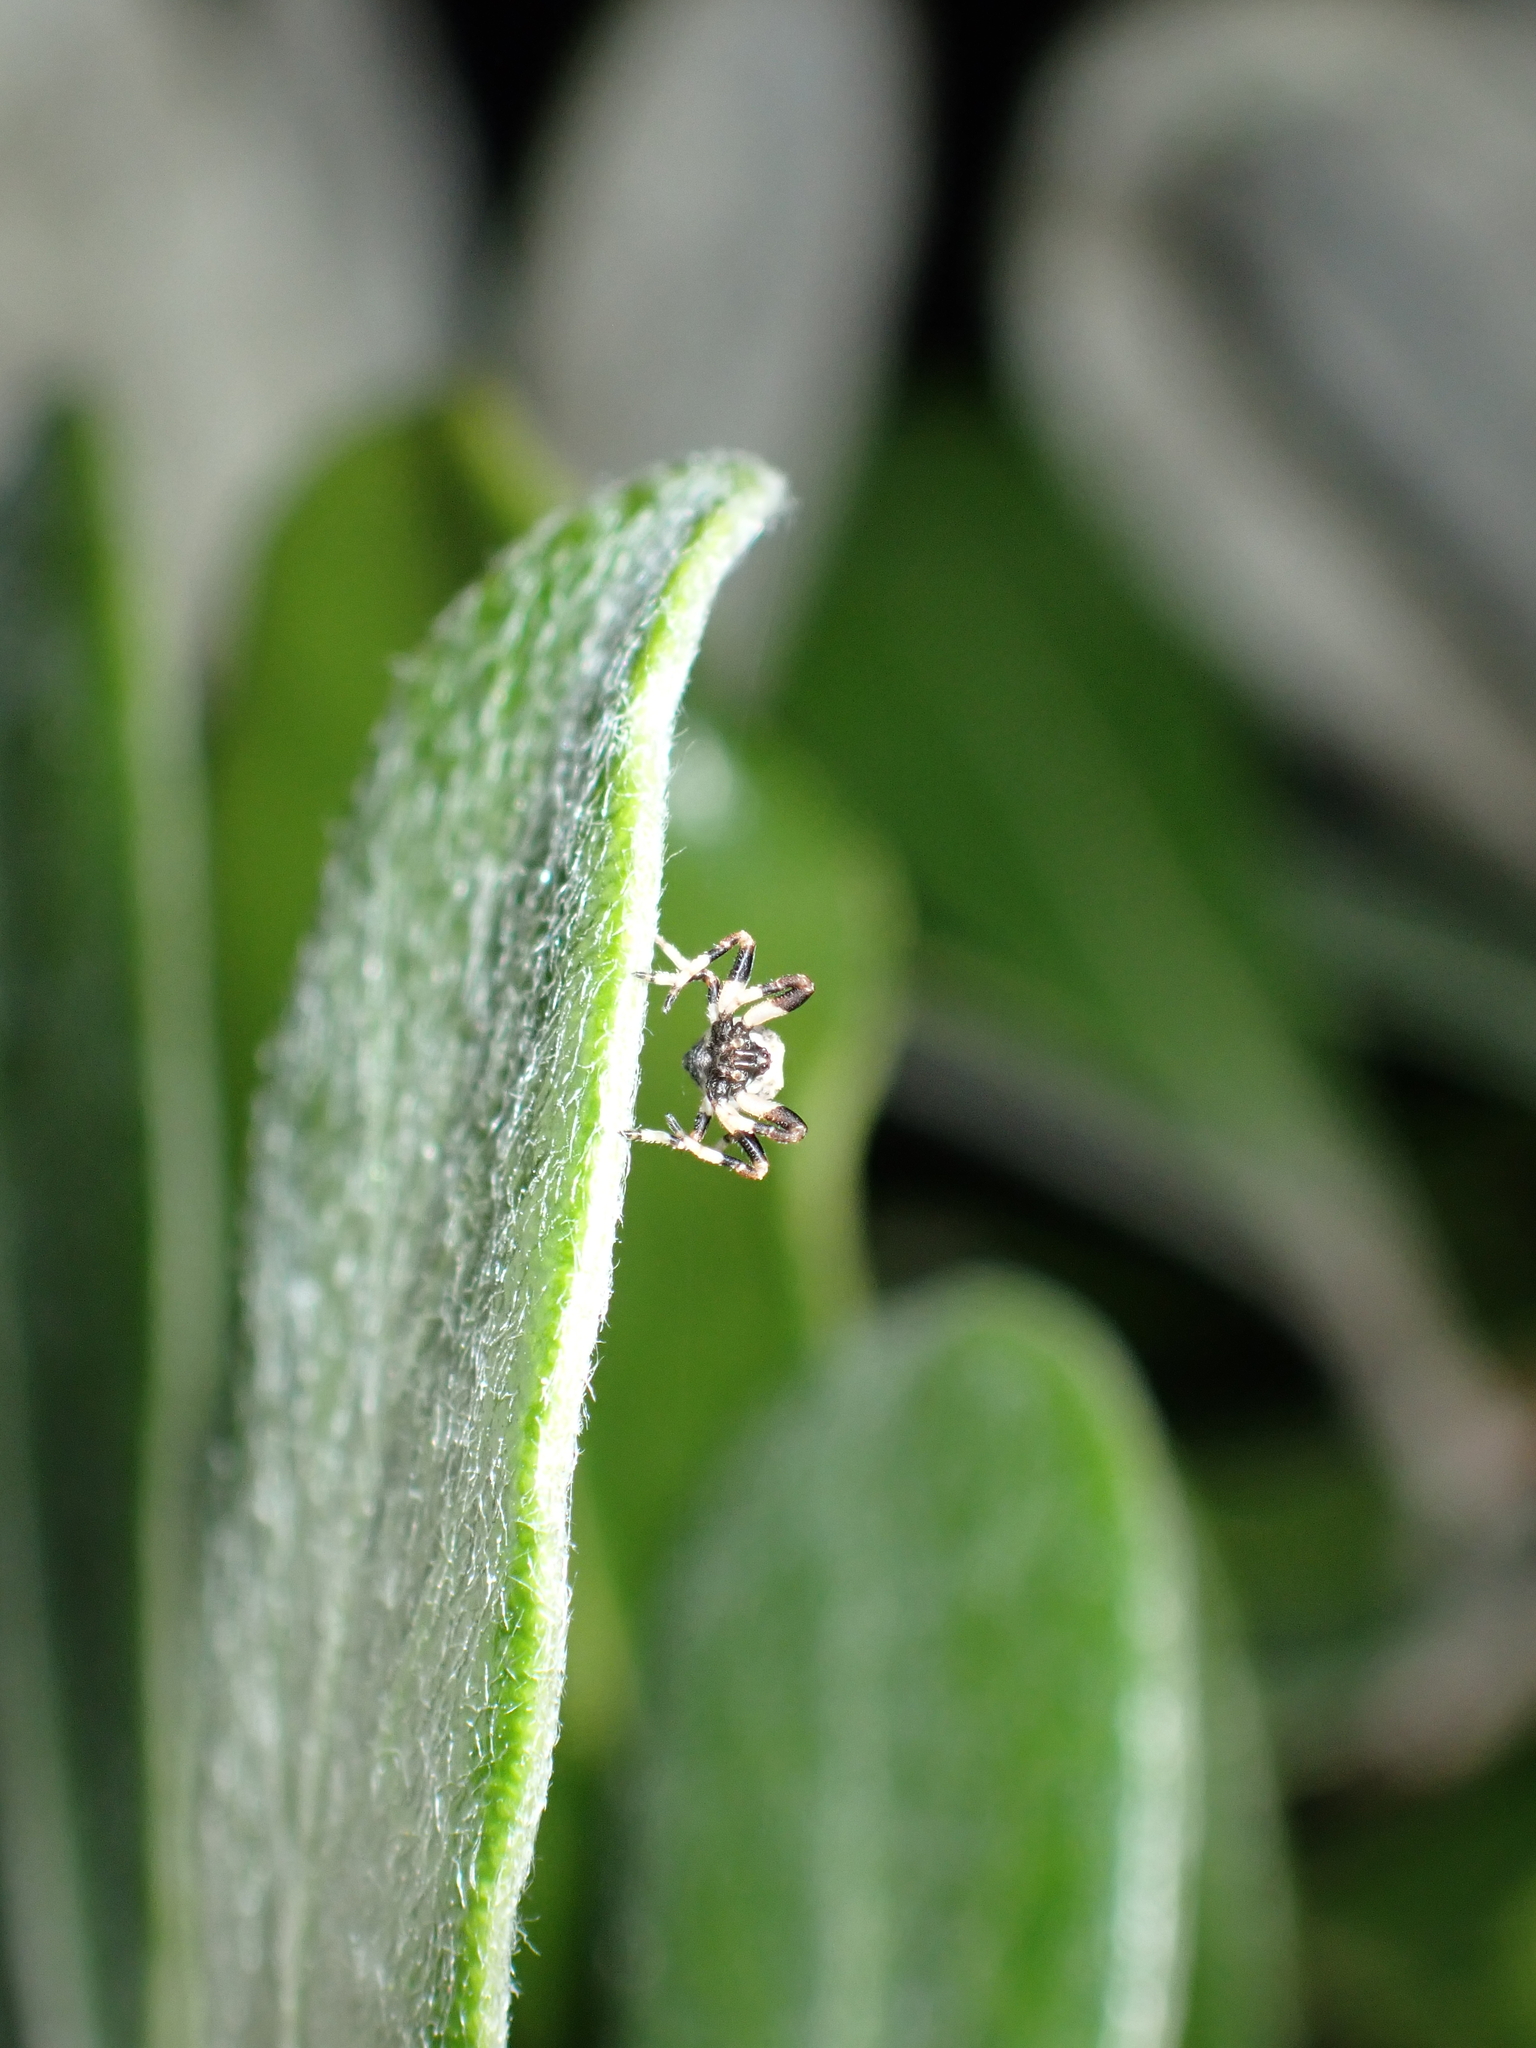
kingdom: Animalia
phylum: Arthropoda
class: Arachnida
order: Araneae
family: Araneidae
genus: Celaenia
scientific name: Celaenia excavata
